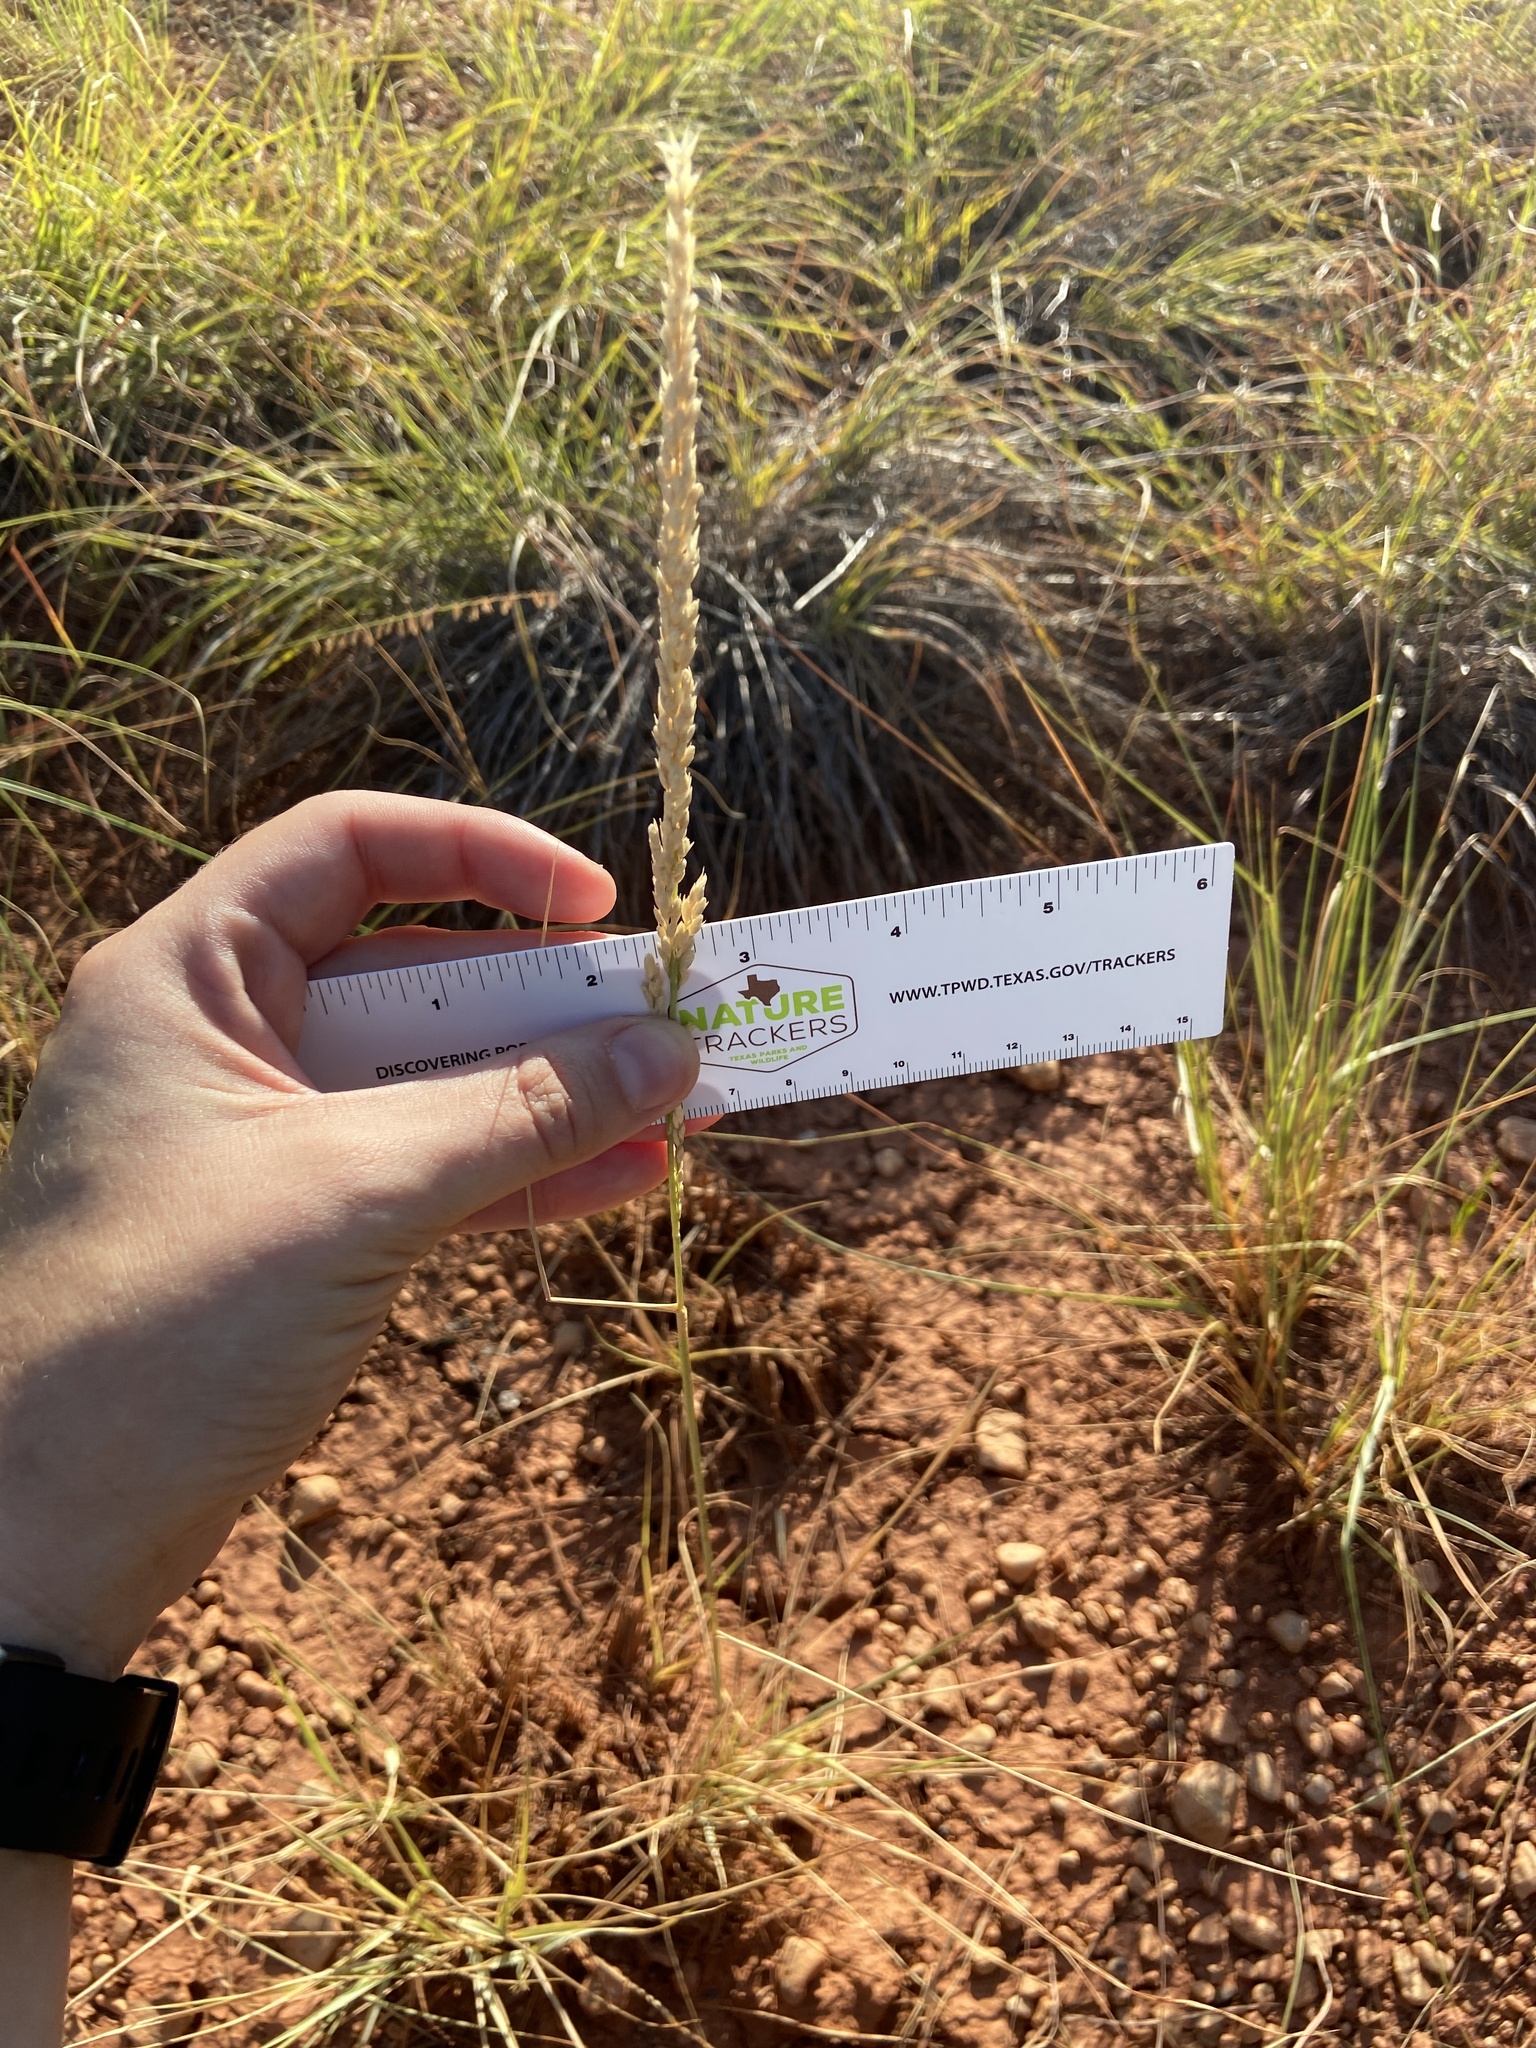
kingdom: Plantae
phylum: Tracheophyta
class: Liliopsida
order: Poales
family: Poaceae
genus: Tridens
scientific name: Tridens albescens
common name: White tridens
